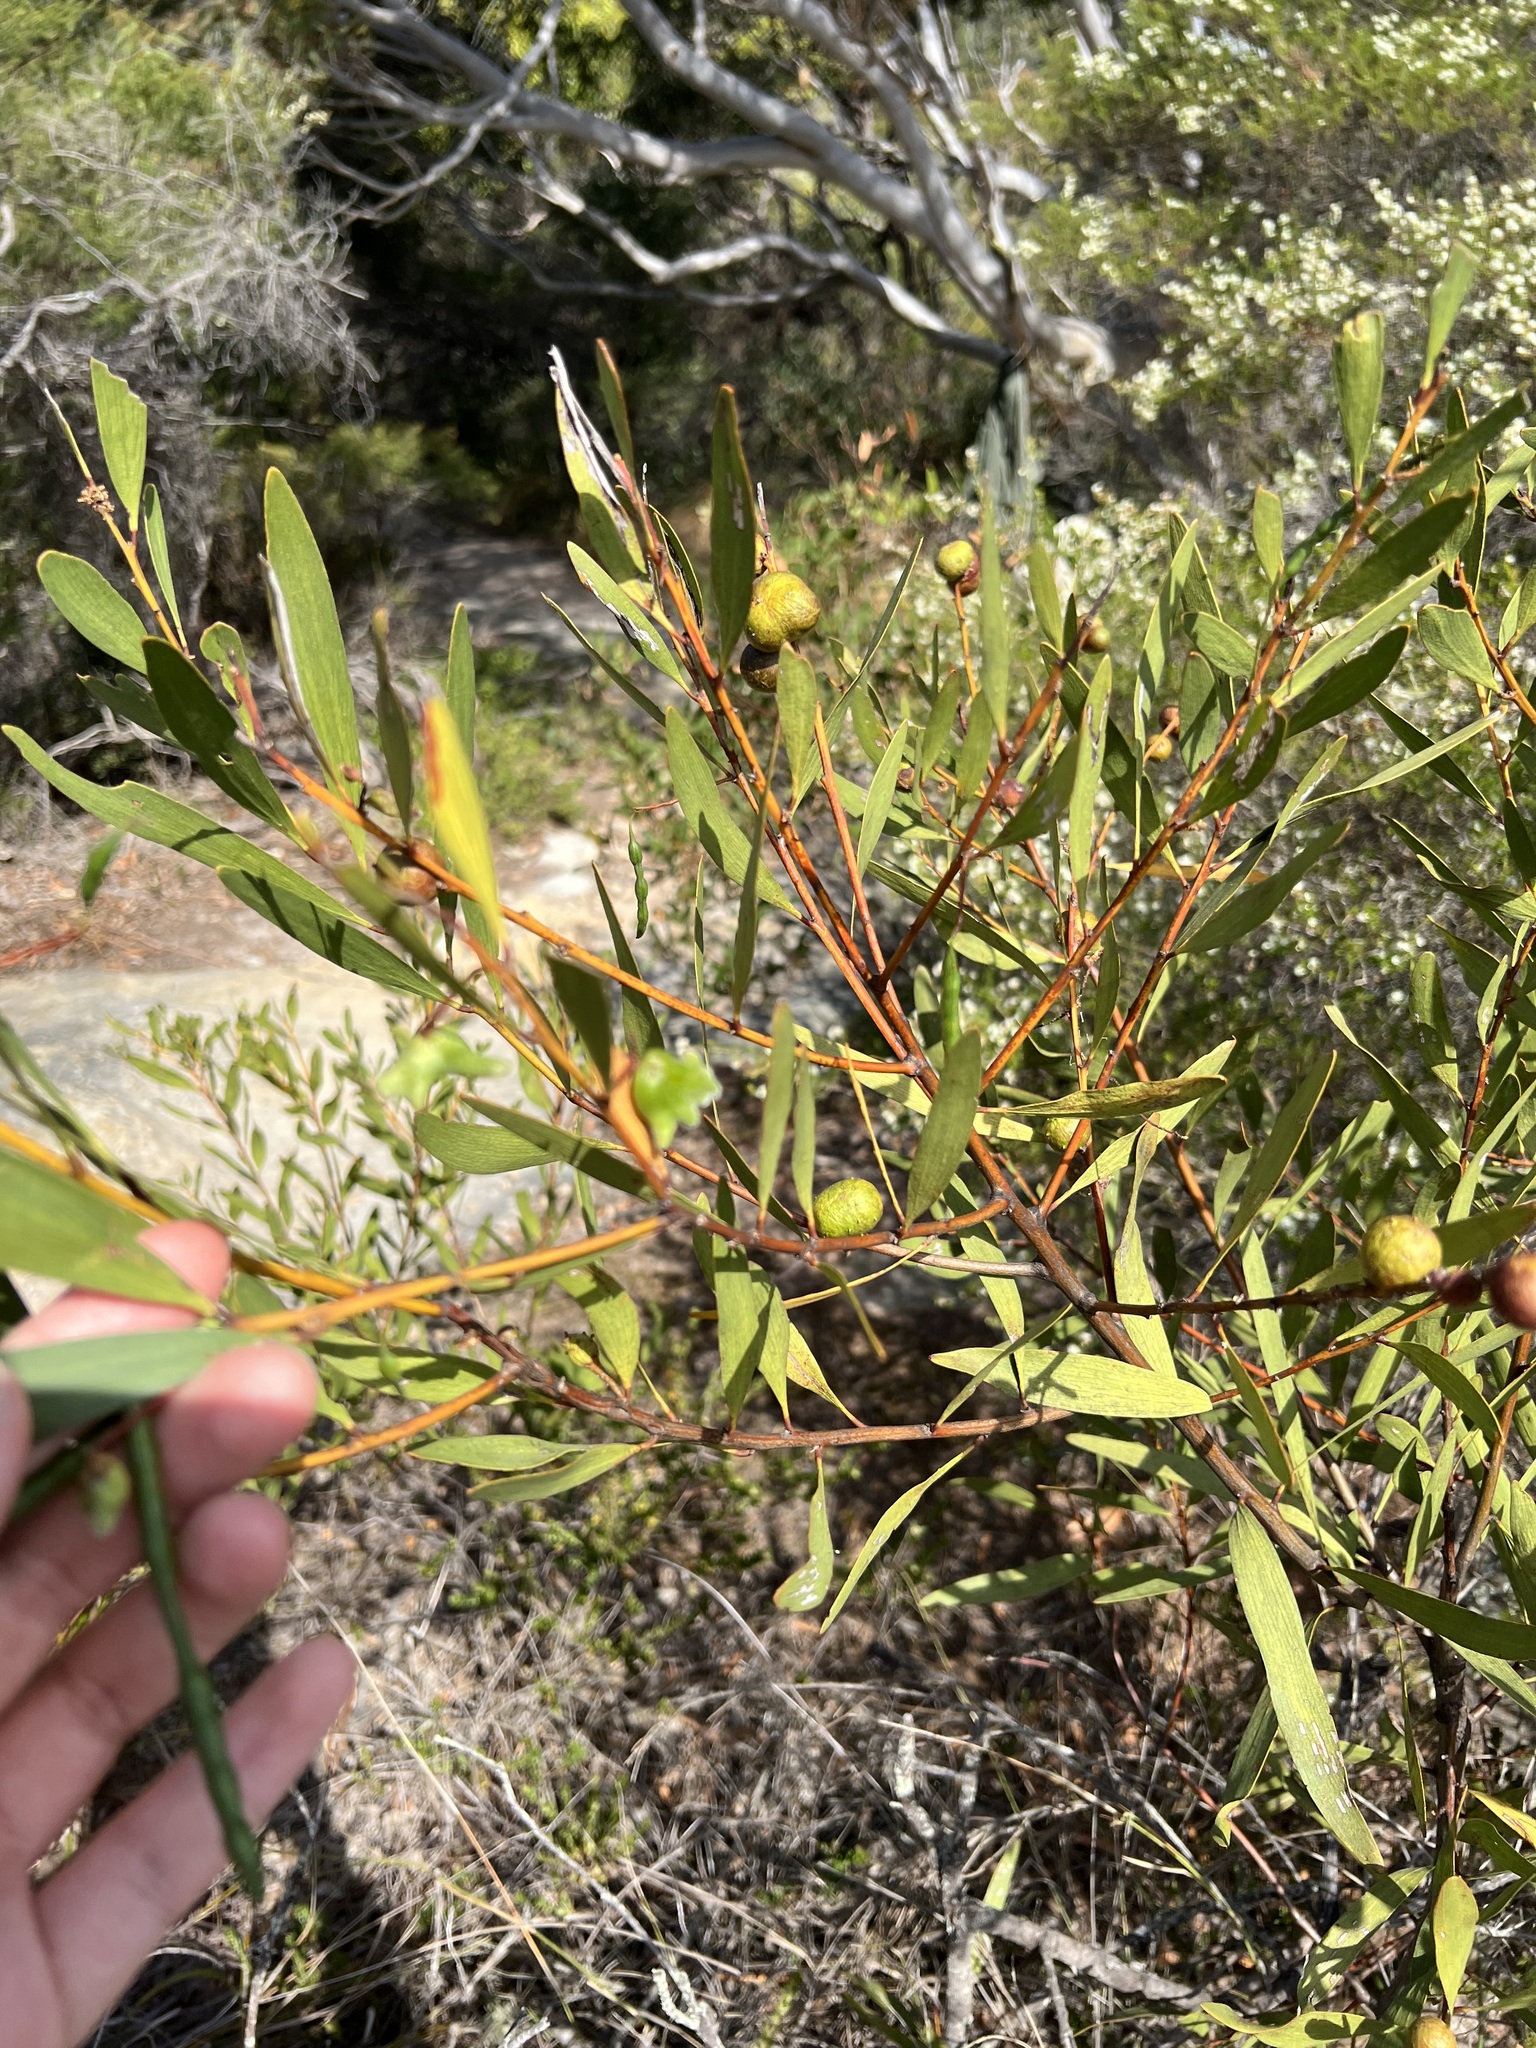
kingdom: Plantae
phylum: Tracheophyta
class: Magnoliopsida
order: Fabales
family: Fabaceae
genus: Acacia
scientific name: Acacia longifolia
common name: Sydney golden wattle
